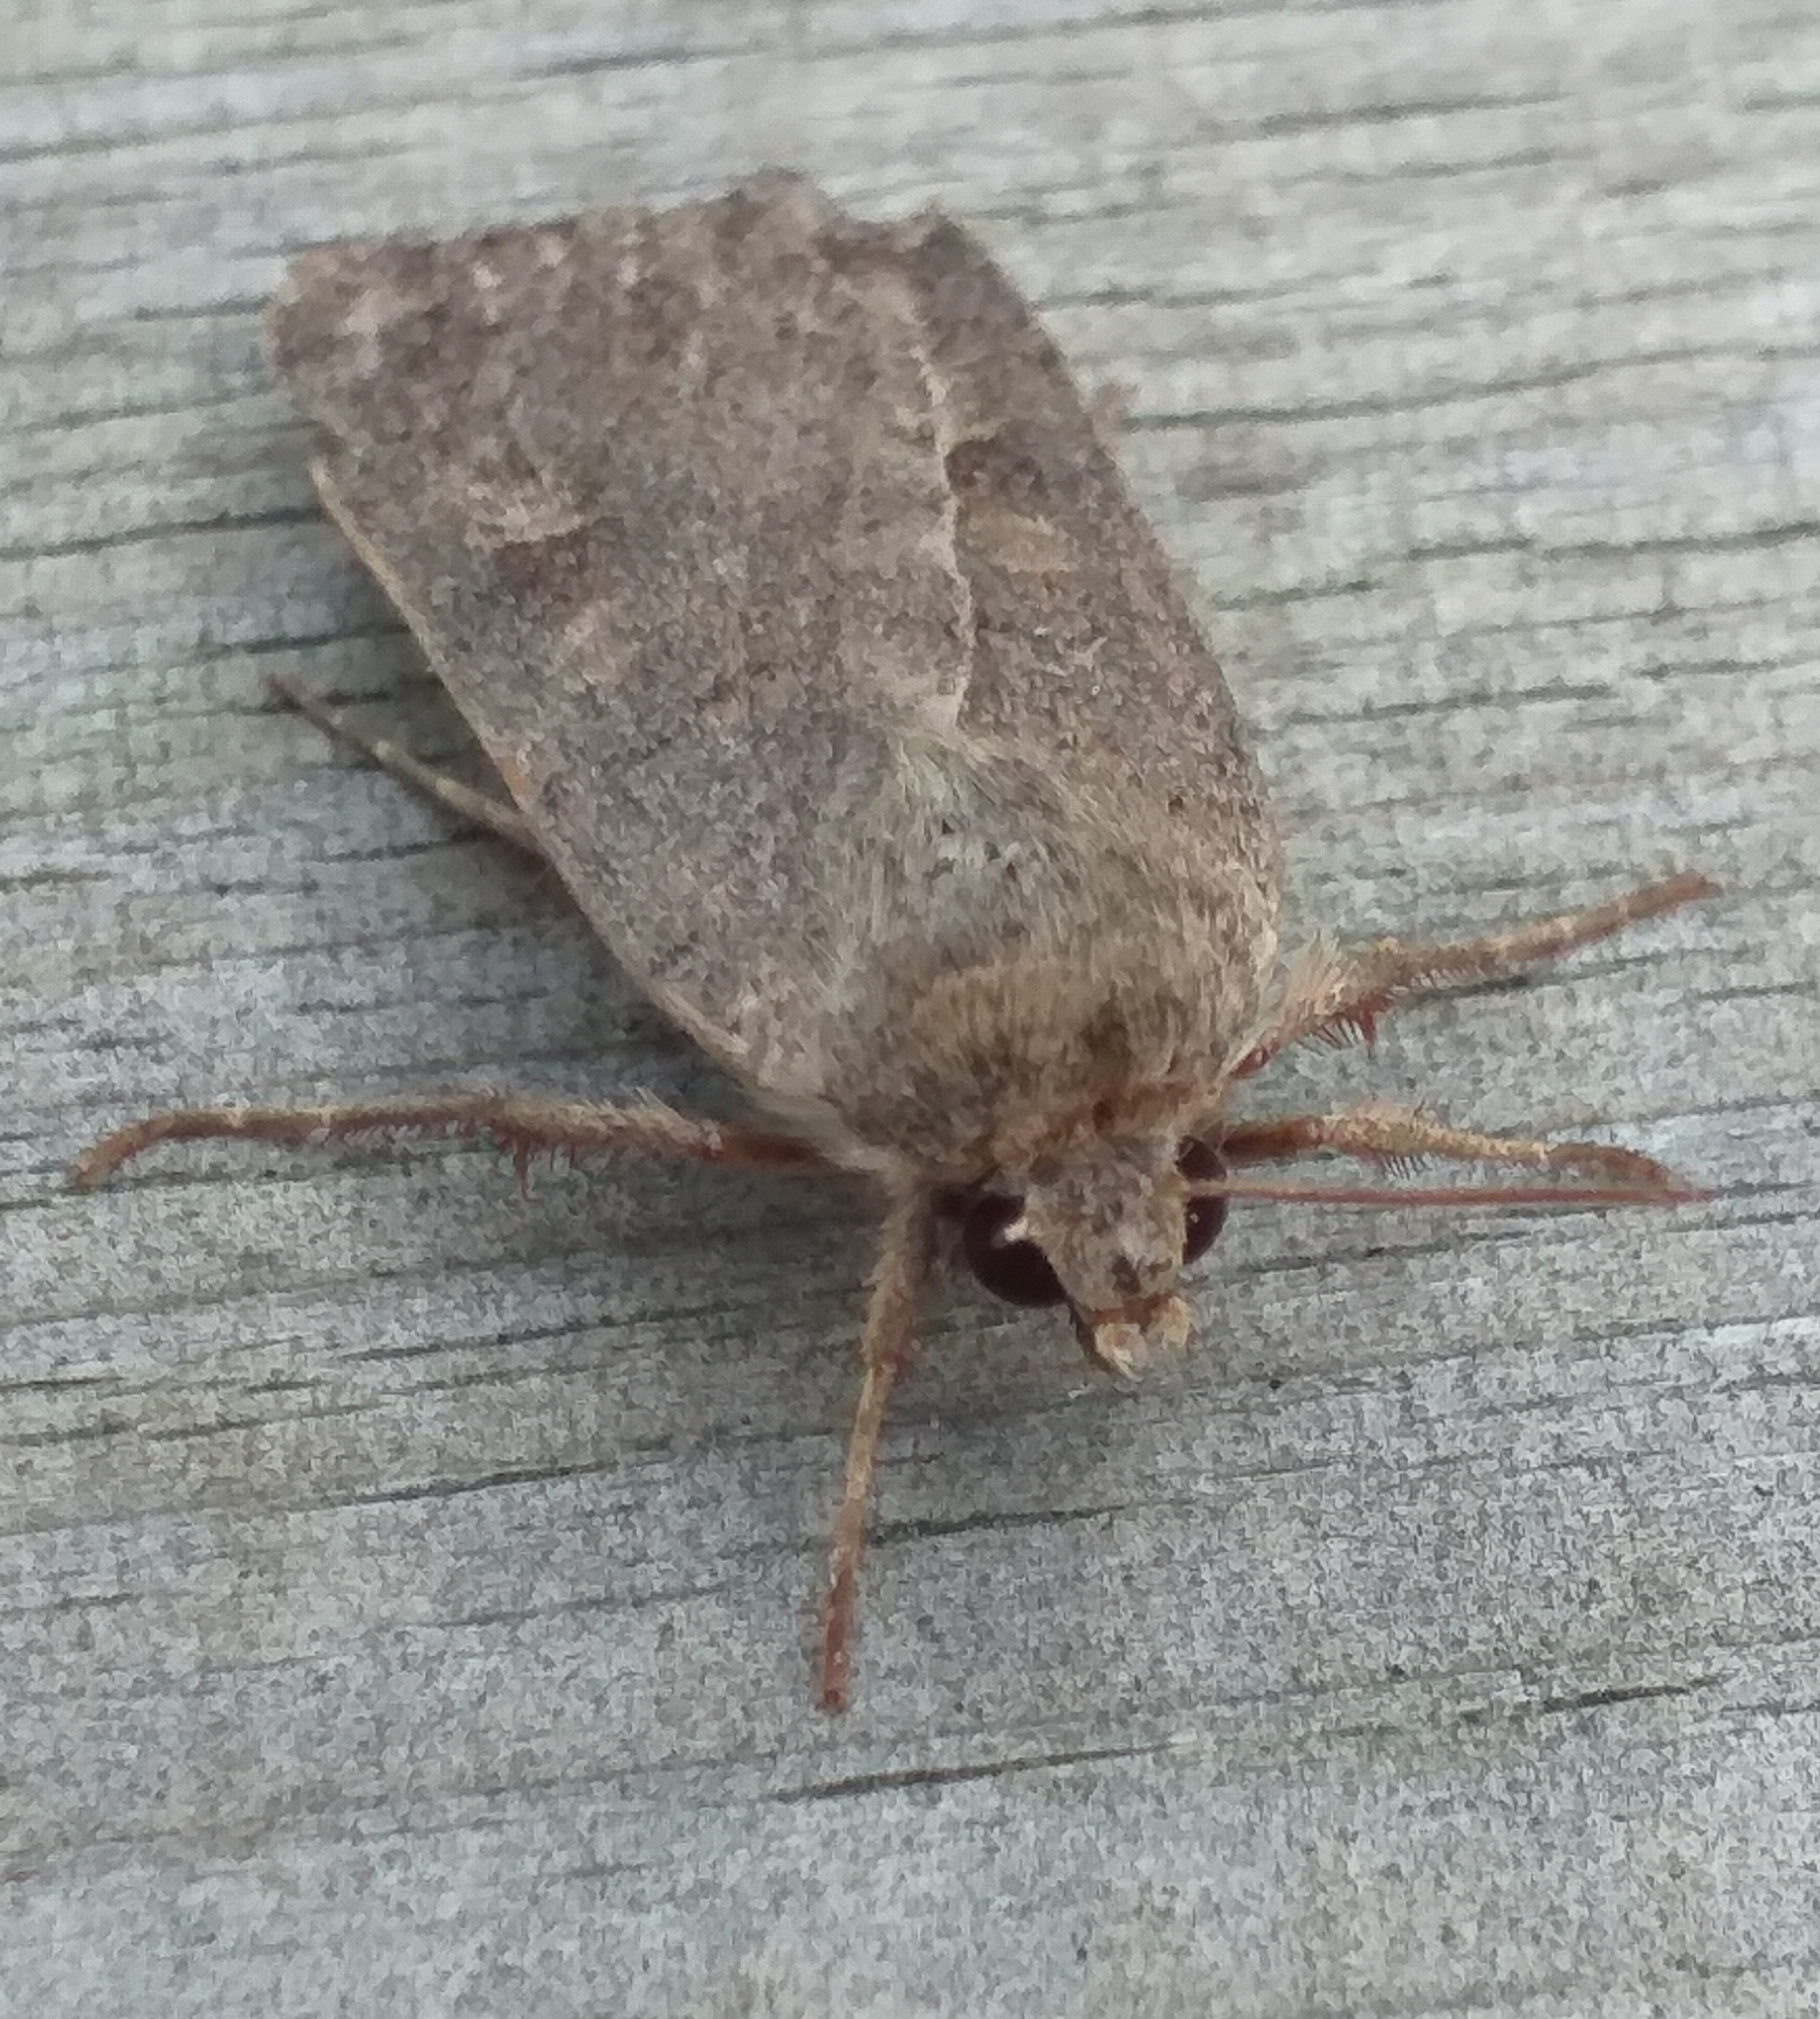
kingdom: Animalia
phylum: Arthropoda
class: Insecta
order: Lepidoptera
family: Noctuidae
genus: Xestia
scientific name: Xestia xanthographa
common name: Square-spot rustic
